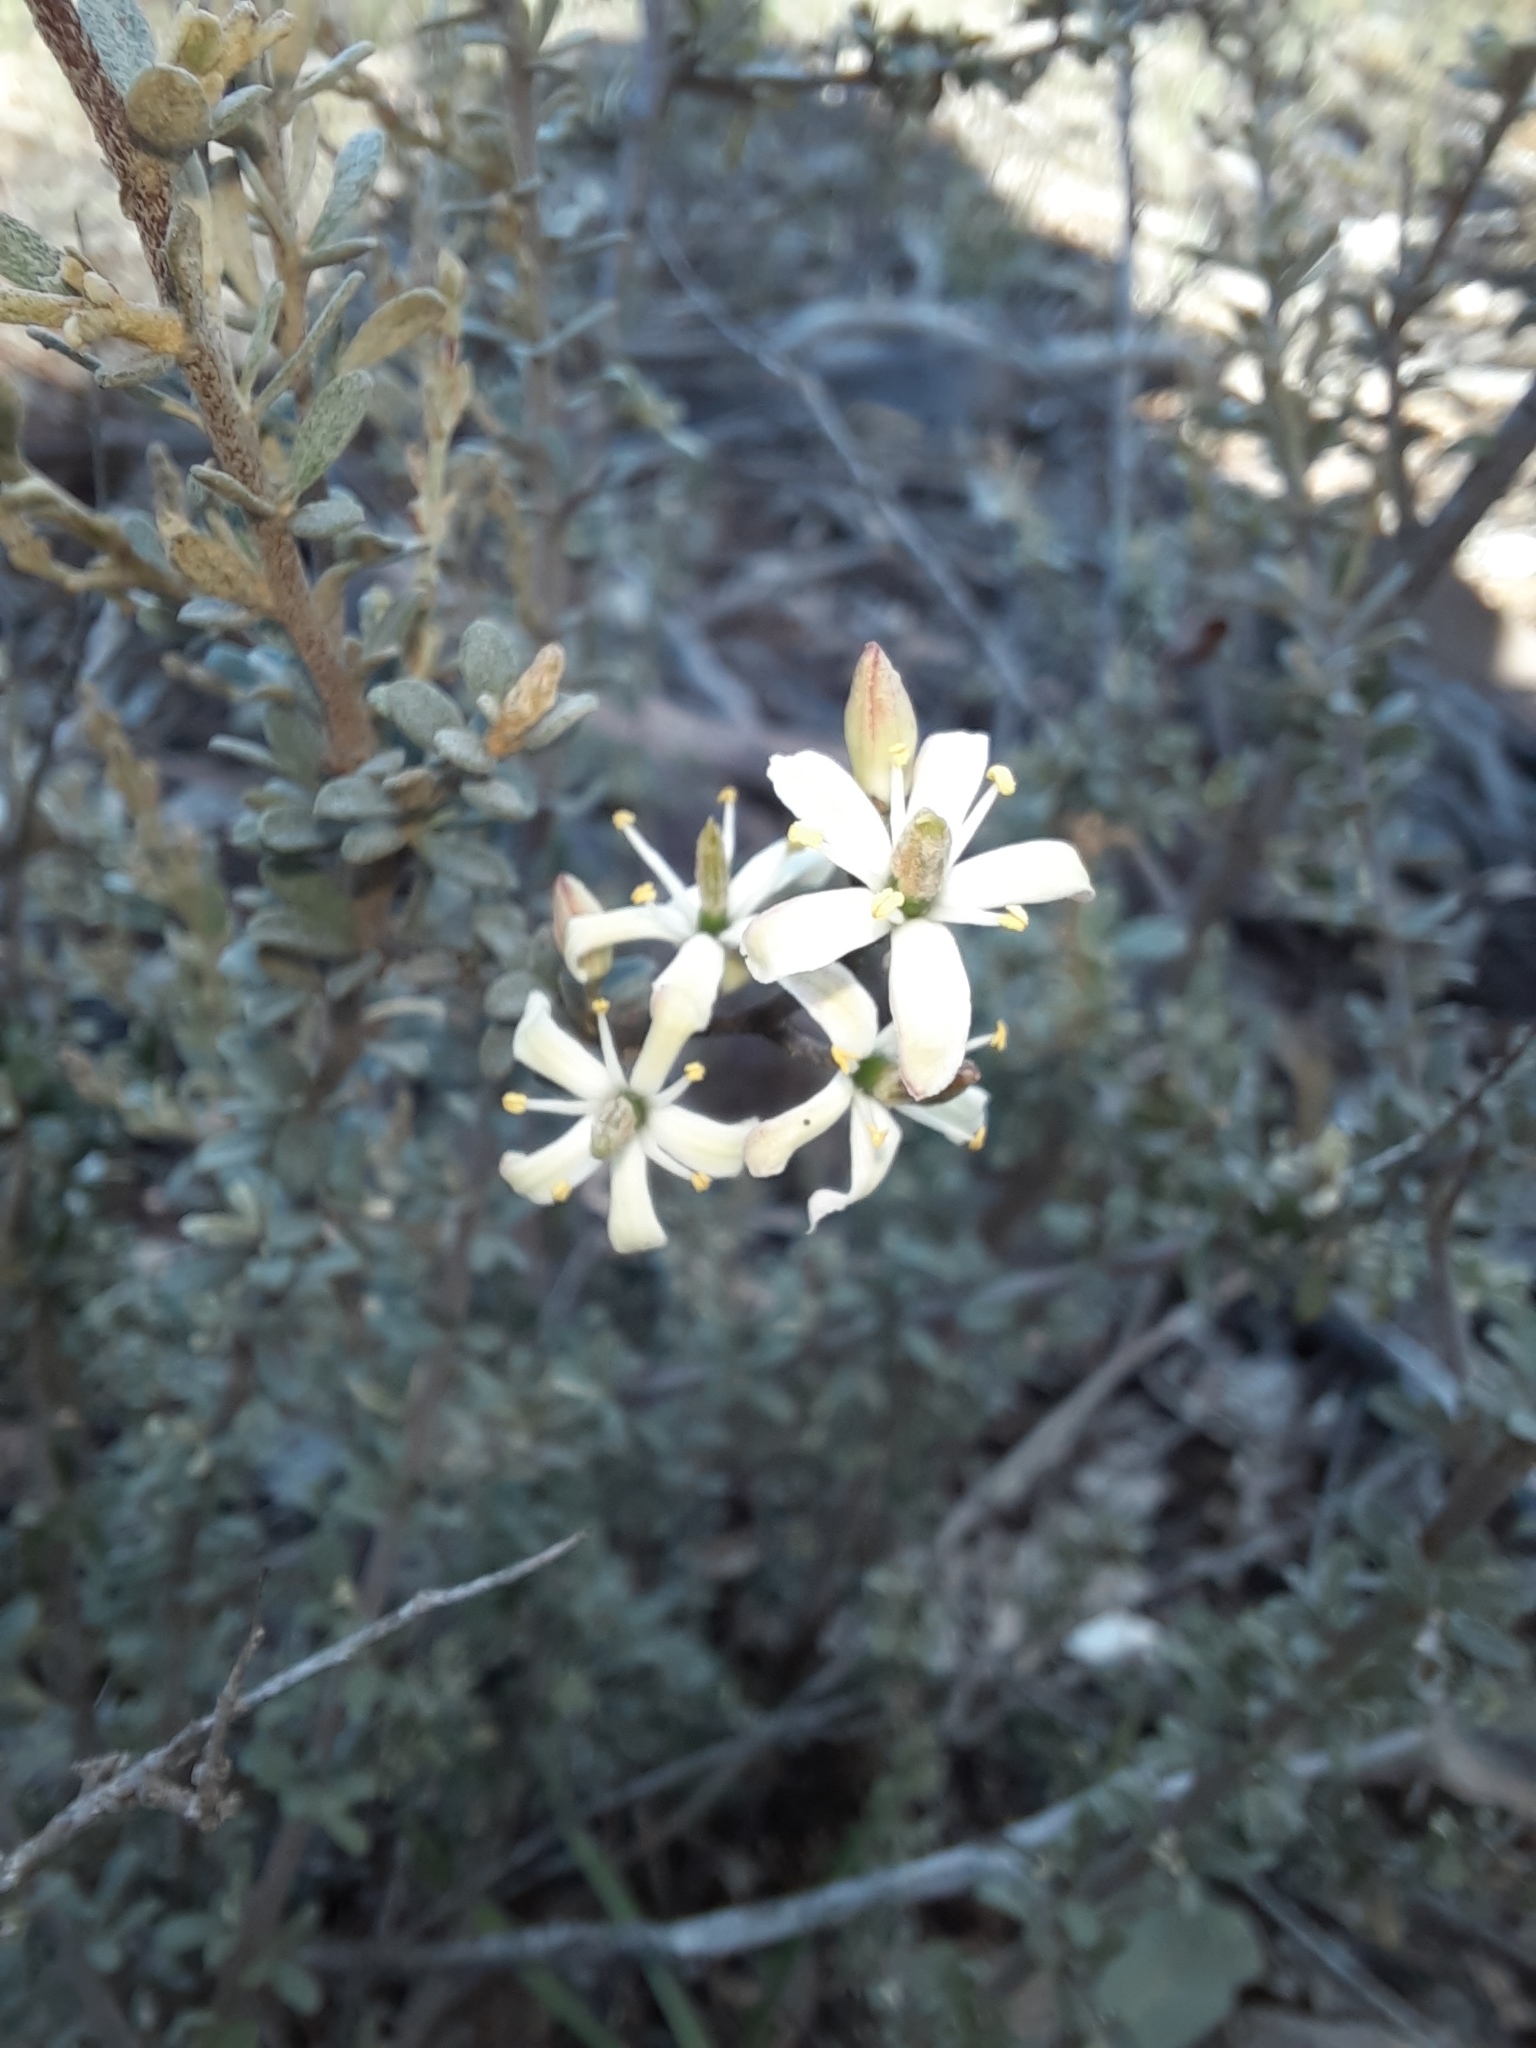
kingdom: Plantae
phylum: Tracheophyta
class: Magnoliopsida
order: Apiales
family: Pittosporaceae
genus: Bursaria
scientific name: Bursaria spinosa
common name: Australian blackthorn
